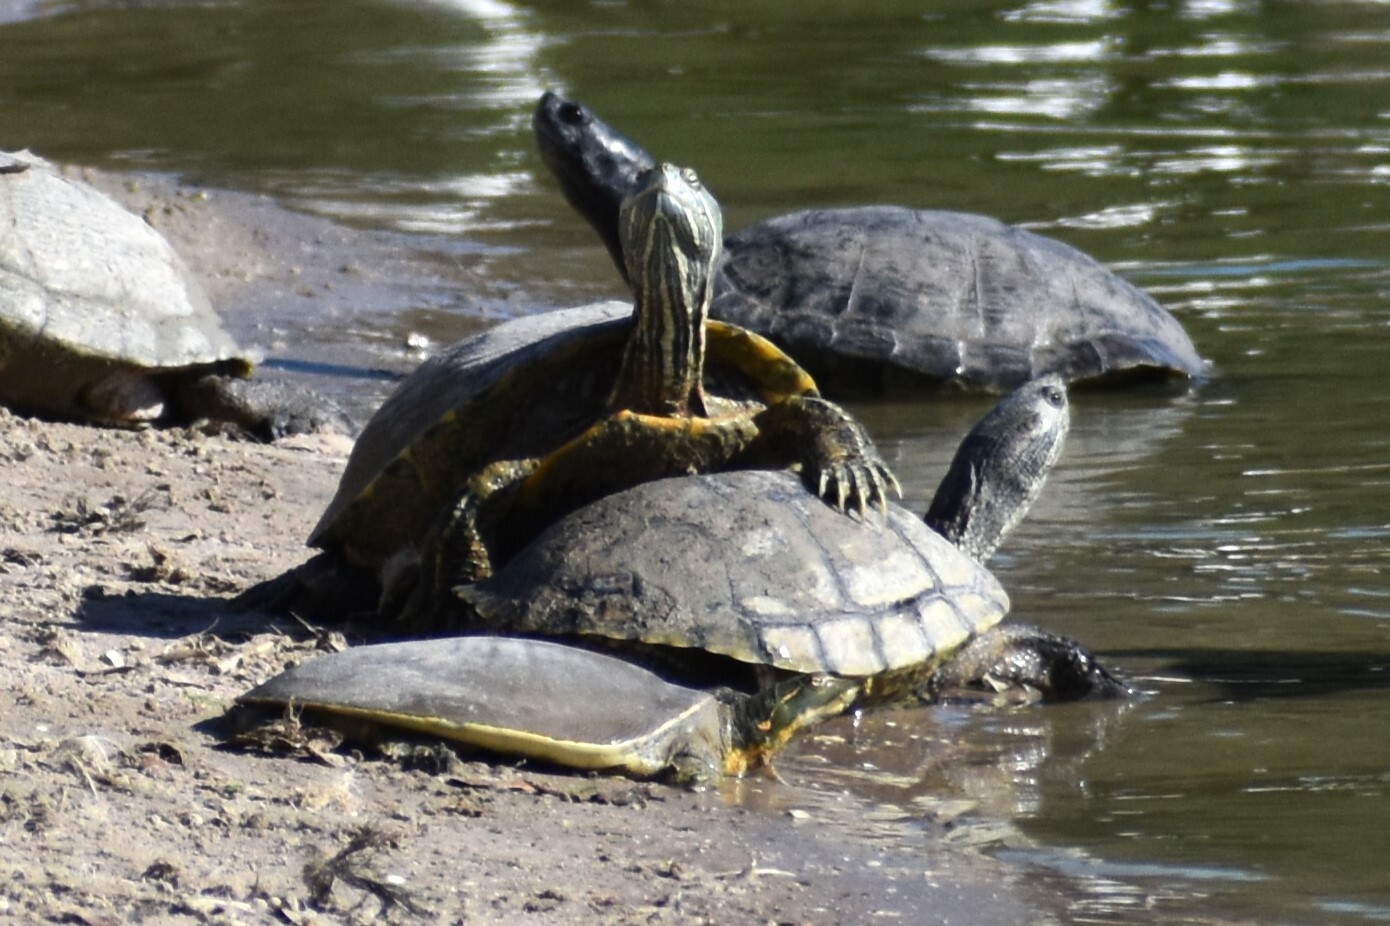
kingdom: Animalia
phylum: Chordata
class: Testudines
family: Emydidae
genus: Trachemys
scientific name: Trachemys scripta
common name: Slider
